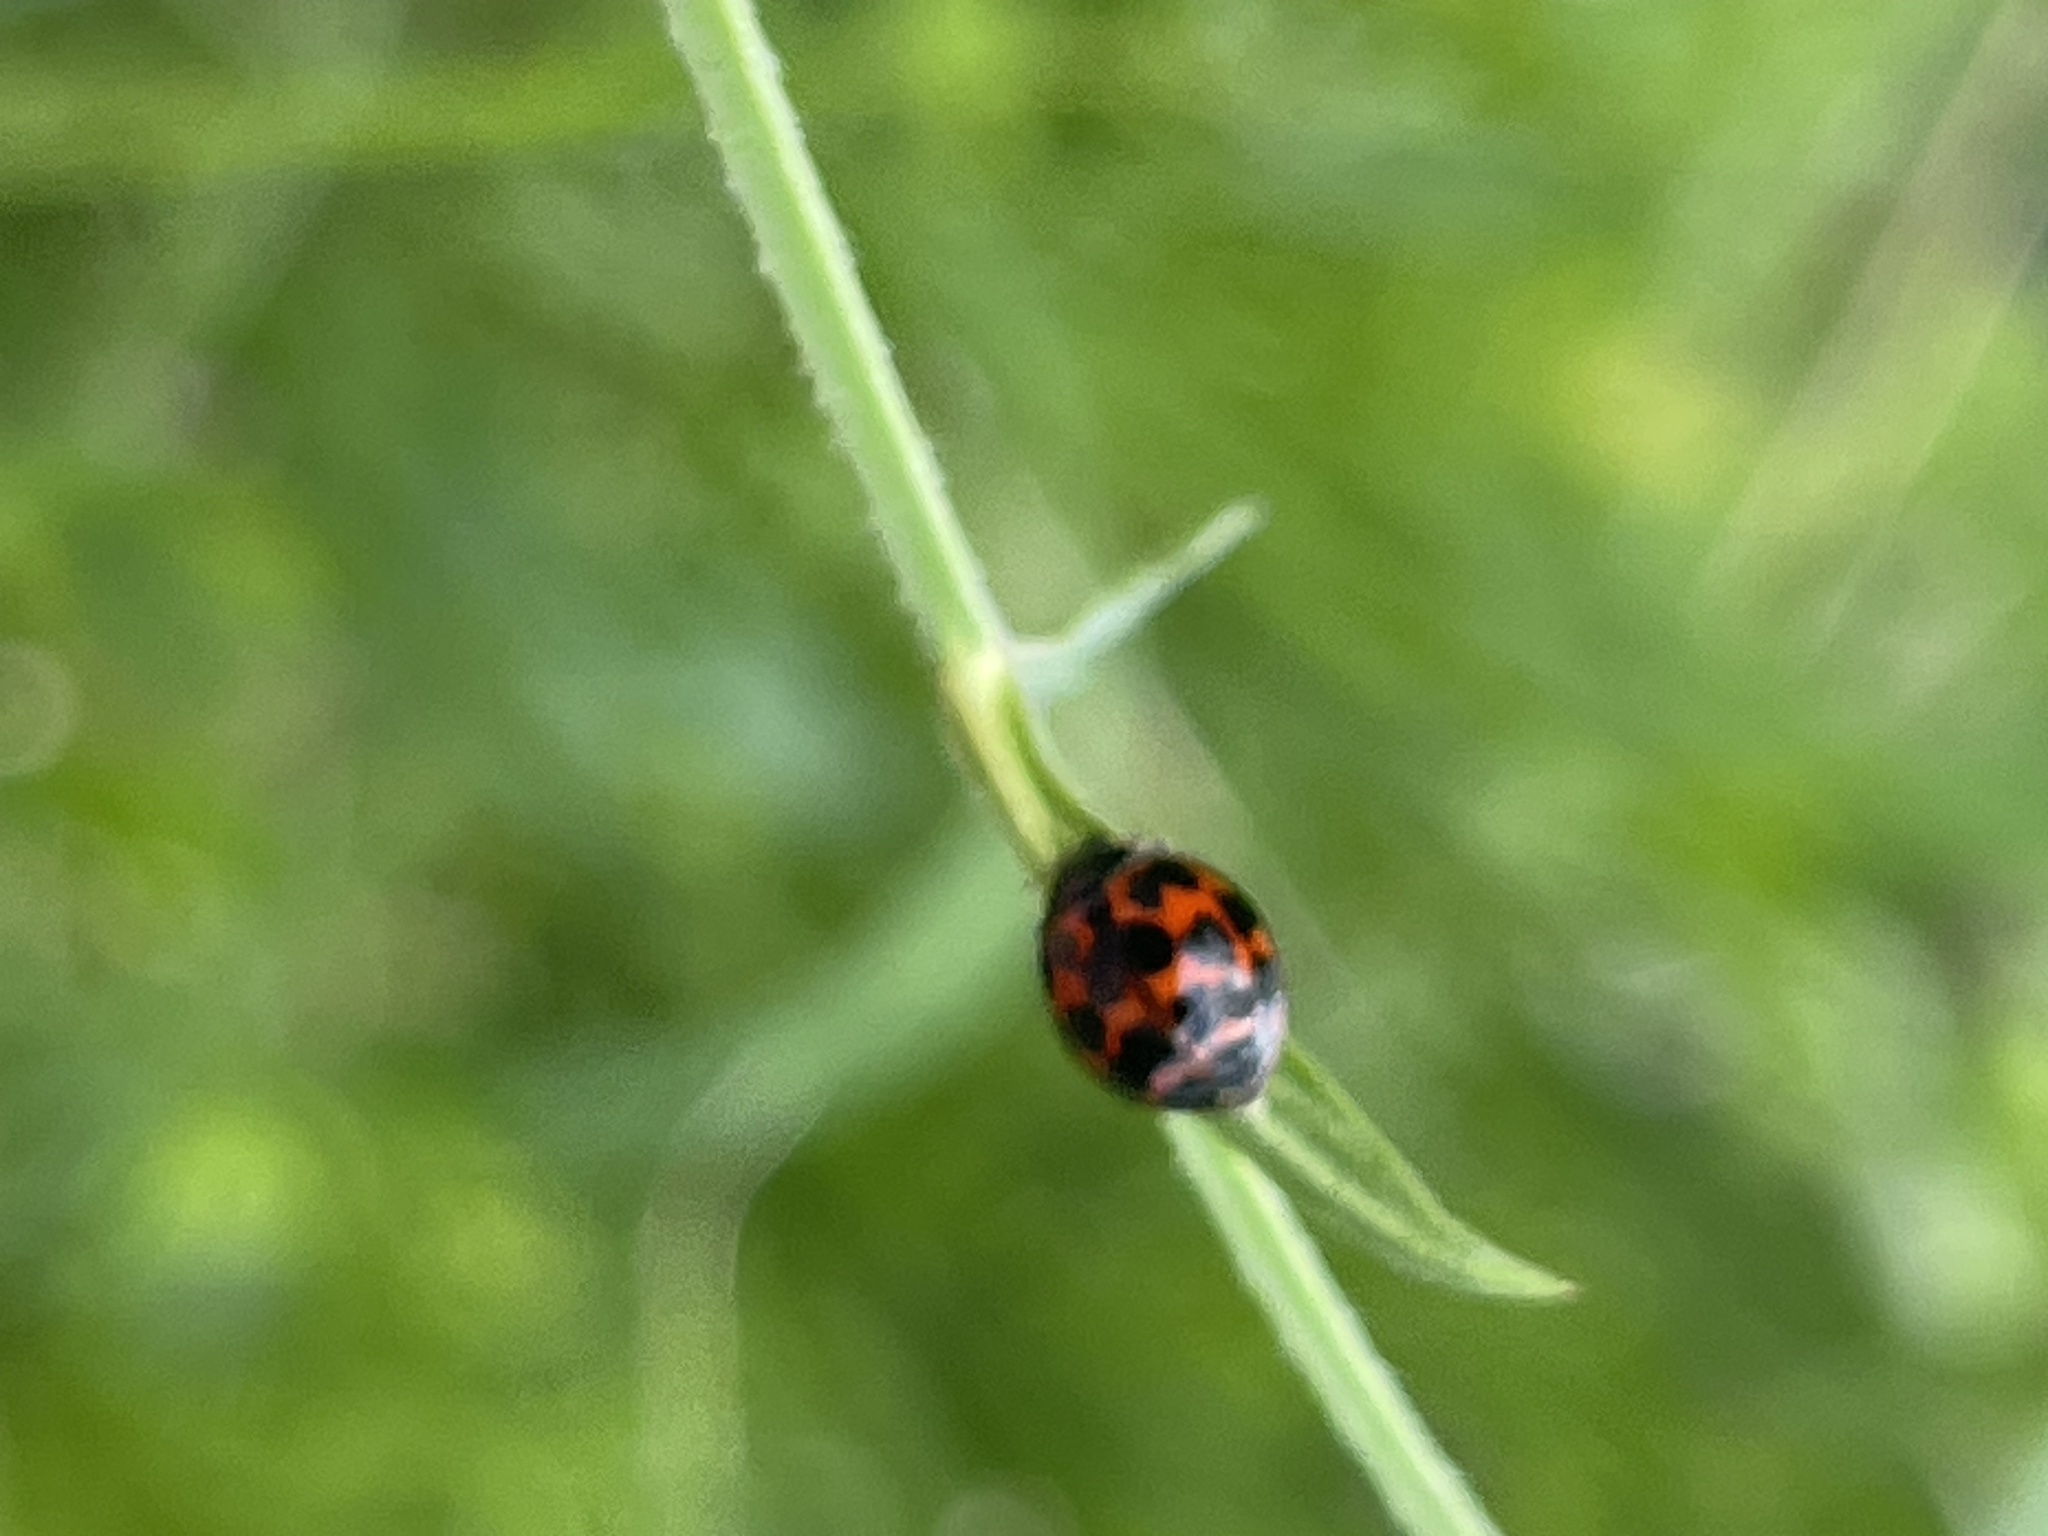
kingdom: Animalia
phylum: Arthropoda
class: Insecta
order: Coleoptera
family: Coccinellidae
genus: Harmonia
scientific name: Harmonia axyridis
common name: Harlequin ladybird
